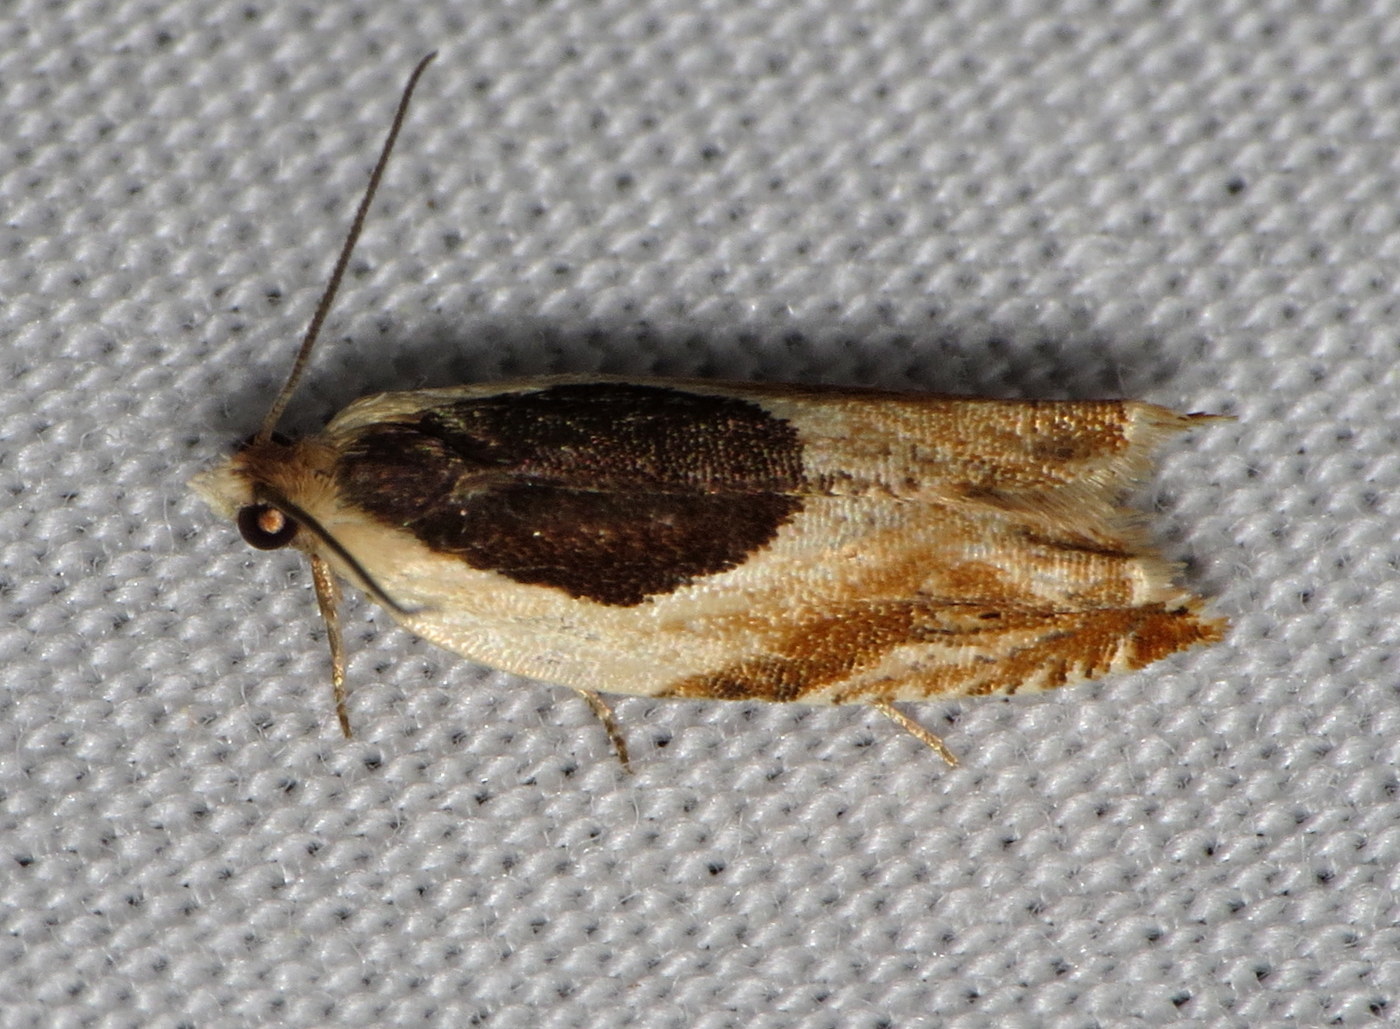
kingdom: Animalia
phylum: Arthropoda
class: Insecta
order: Lepidoptera
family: Tortricidae
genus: Ancylis
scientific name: Ancylis burgessiana
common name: Oak leaffolder moth
